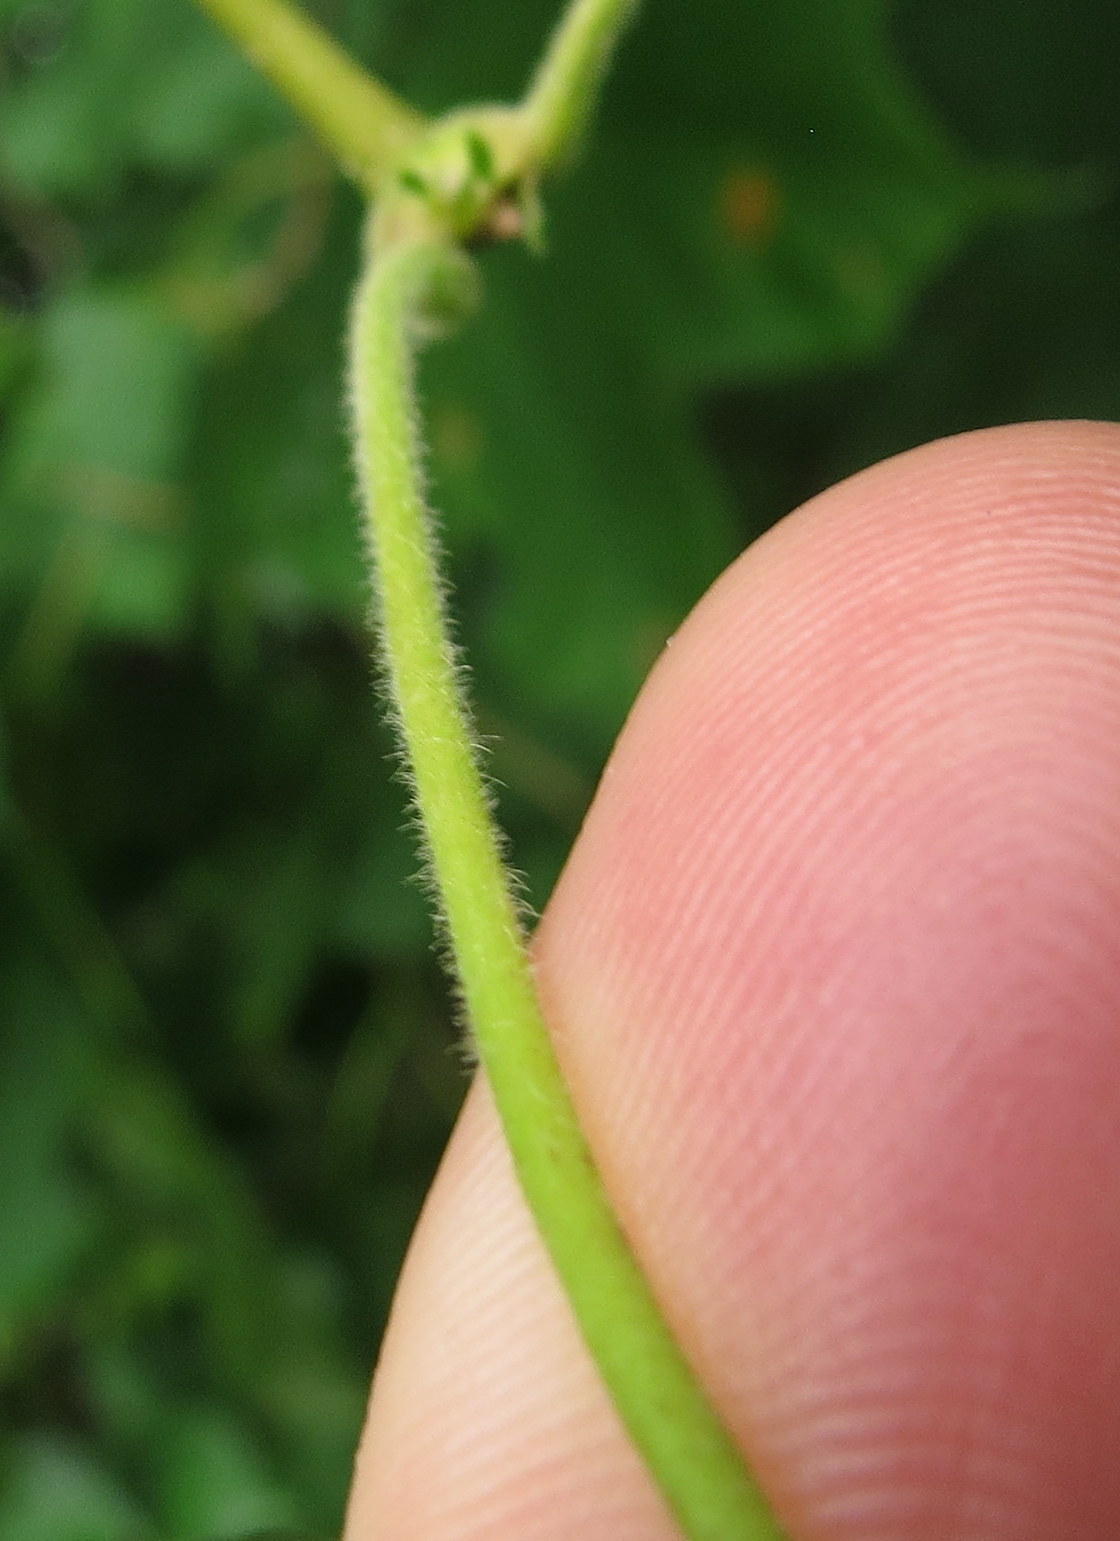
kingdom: Plantae
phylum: Tracheophyta
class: Magnoliopsida
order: Sapindales
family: Sapindaceae
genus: Acer
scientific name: Acer nigrum
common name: Black maple
